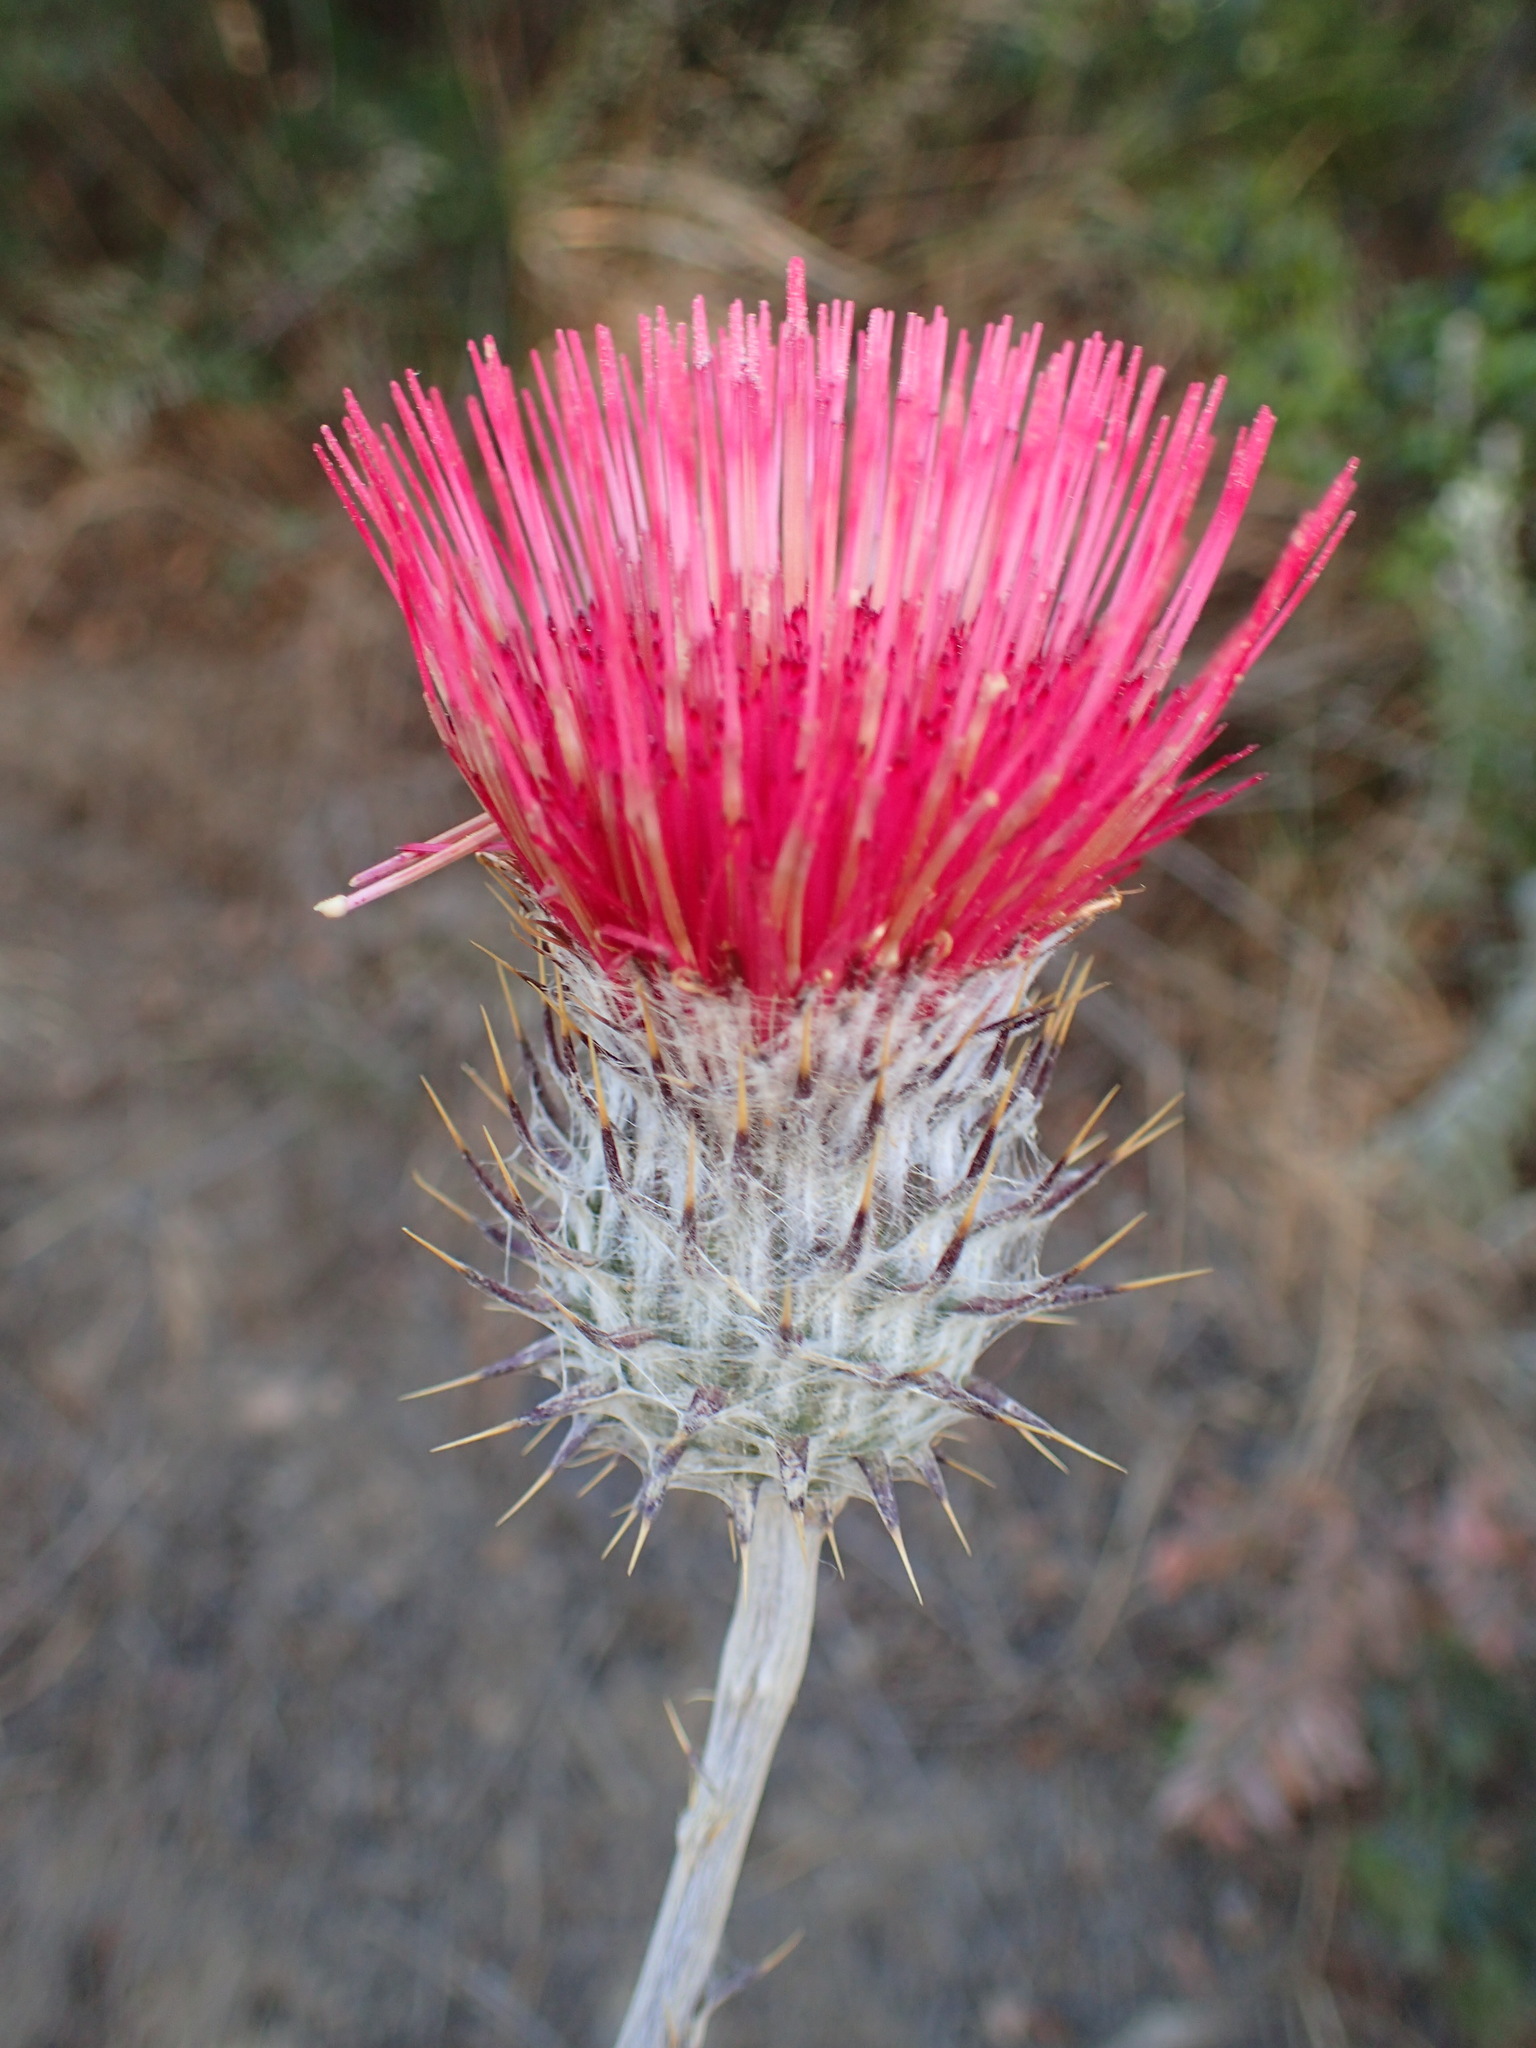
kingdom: Plantae
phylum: Tracheophyta
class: Magnoliopsida
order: Asterales
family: Asteraceae
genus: Cirsium
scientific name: Cirsium occidentale
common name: Western thistle
